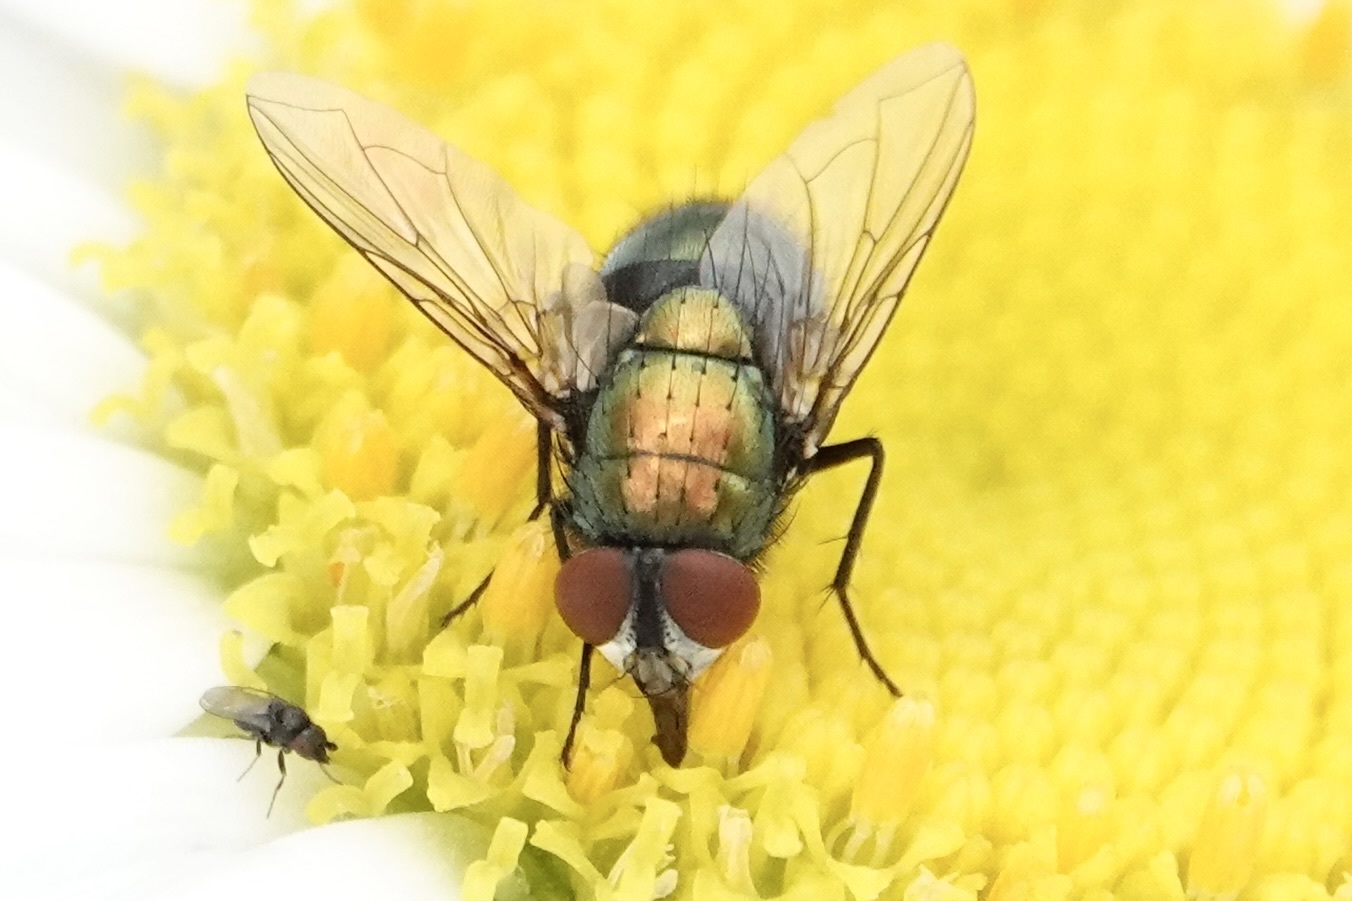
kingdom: Animalia
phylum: Arthropoda
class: Insecta
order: Diptera
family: Calliphoridae
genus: Lucilia
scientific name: Lucilia sericata
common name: Blow fly
